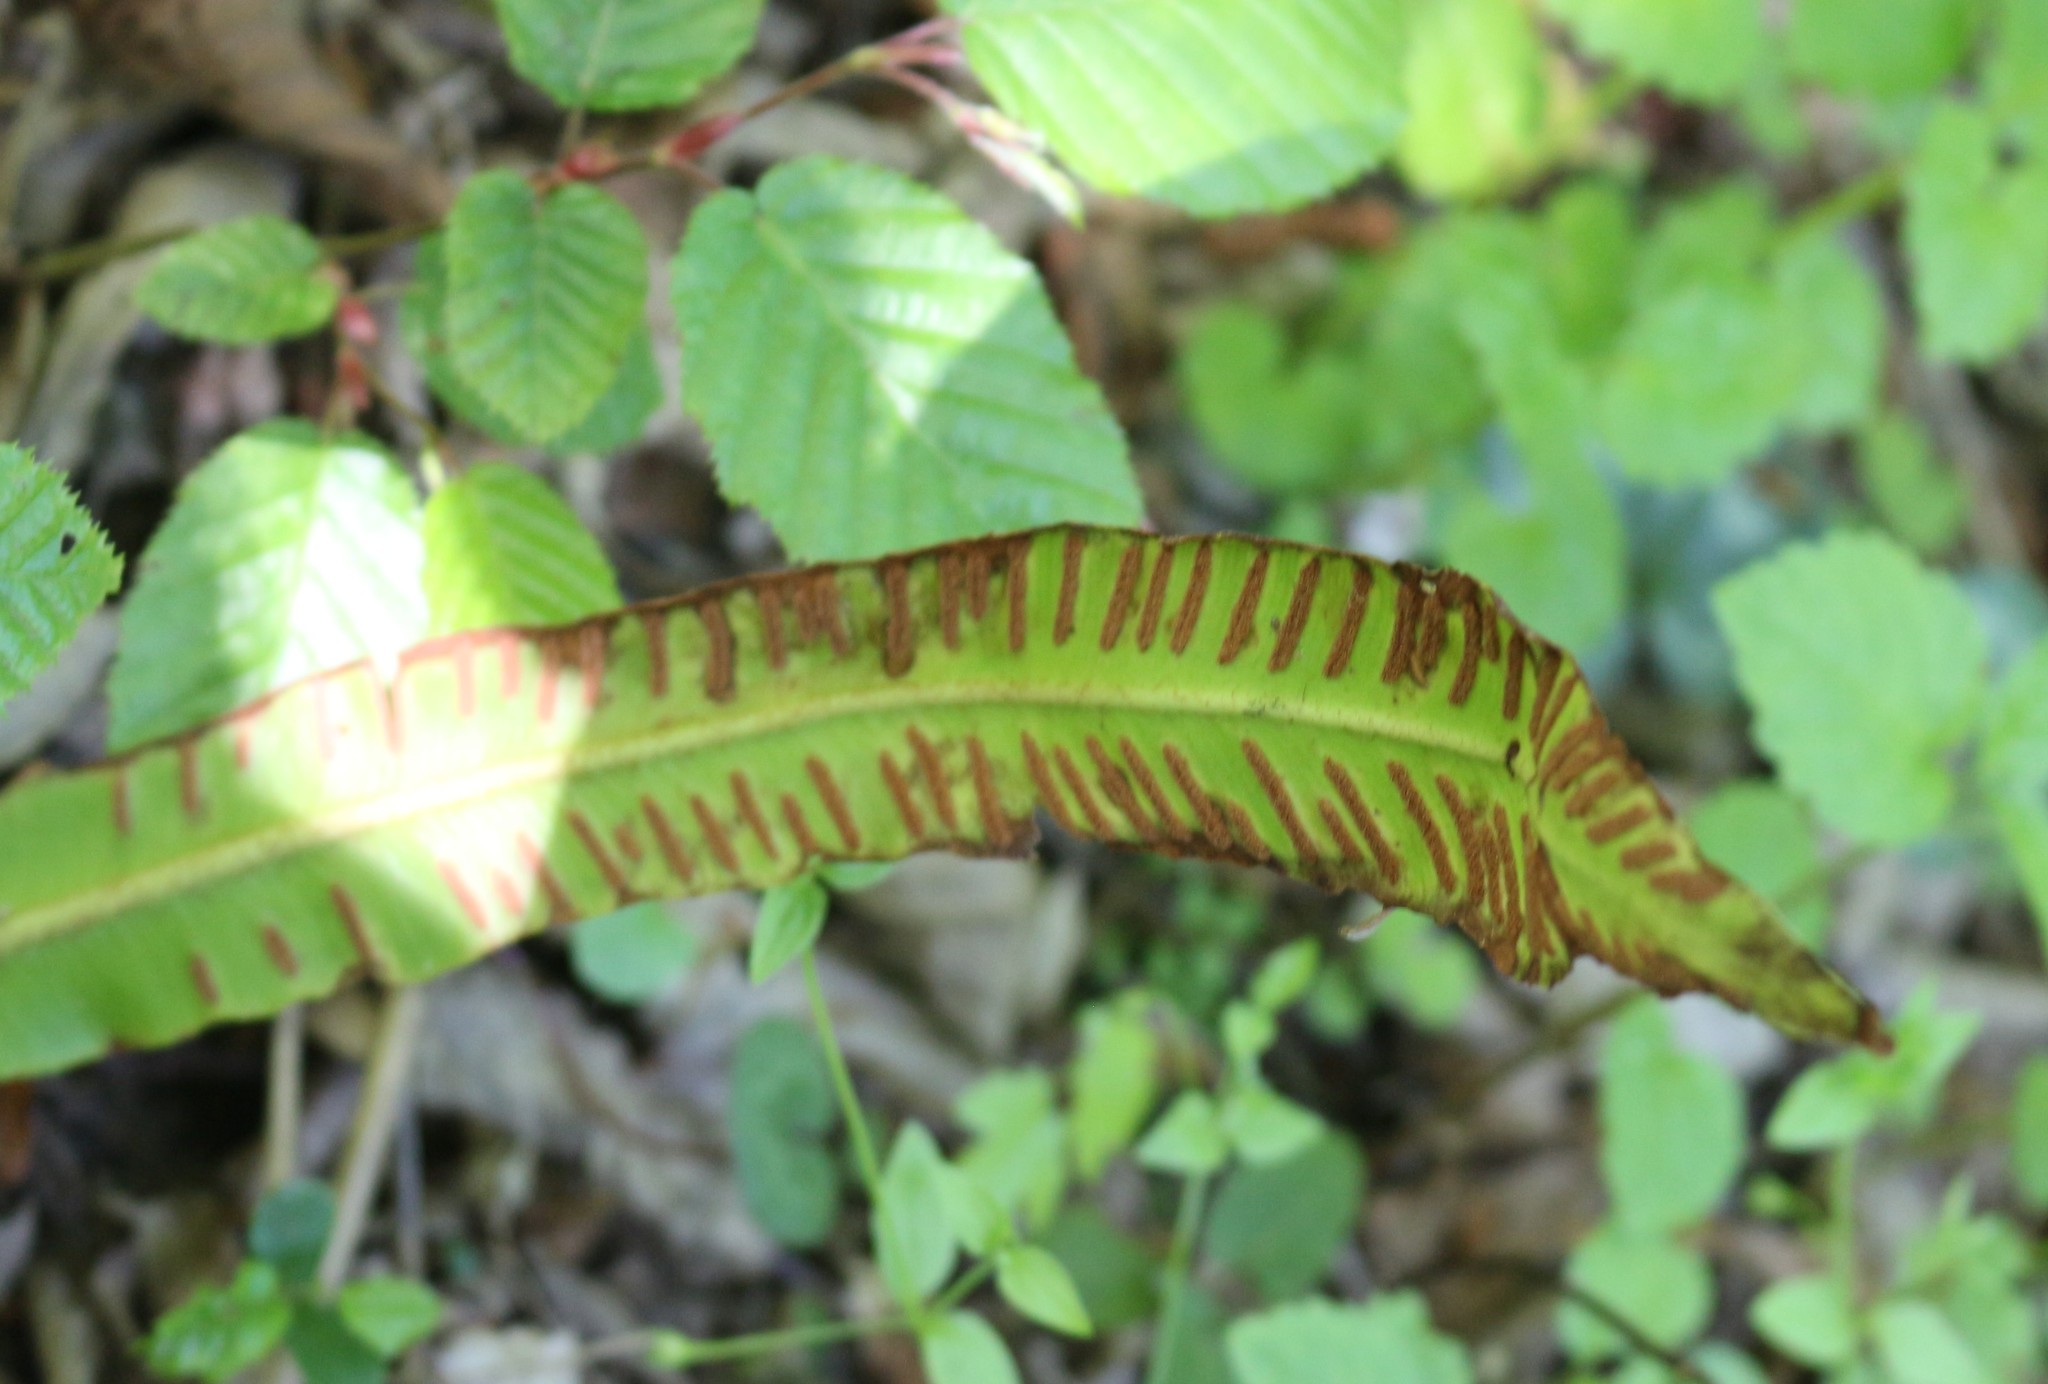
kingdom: Plantae
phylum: Tracheophyta
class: Polypodiopsida
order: Polypodiales
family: Aspleniaceae
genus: Asplenium
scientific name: Asplenium scolopendrium
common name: Hart's-tongue fern
